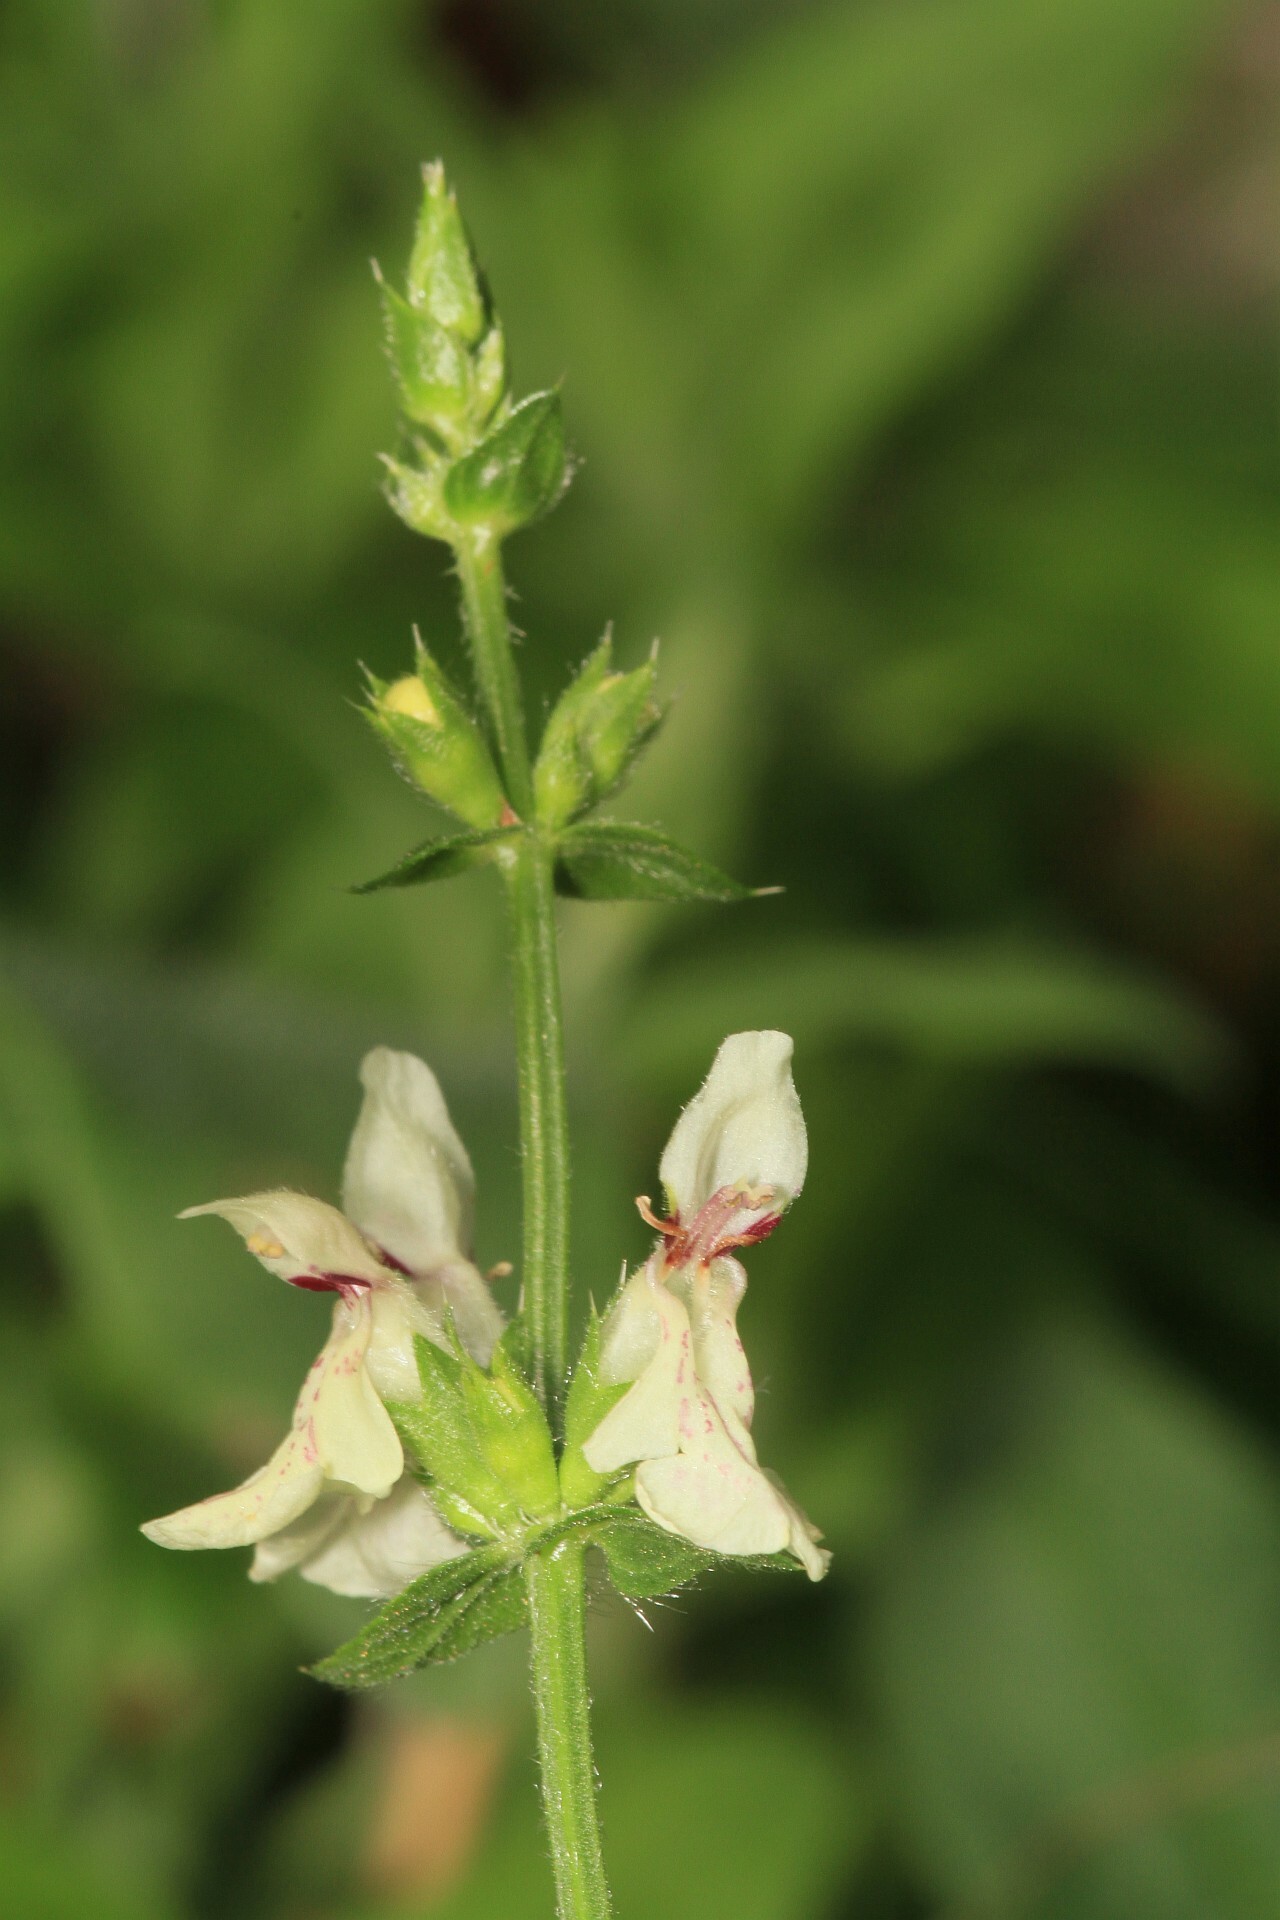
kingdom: Plantae
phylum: Tracheophyta
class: Magnoliopsida
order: Lamiales
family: Lamiaceae
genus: Stachys
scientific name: Stachys recta
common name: Perennial yellow-woundwort
